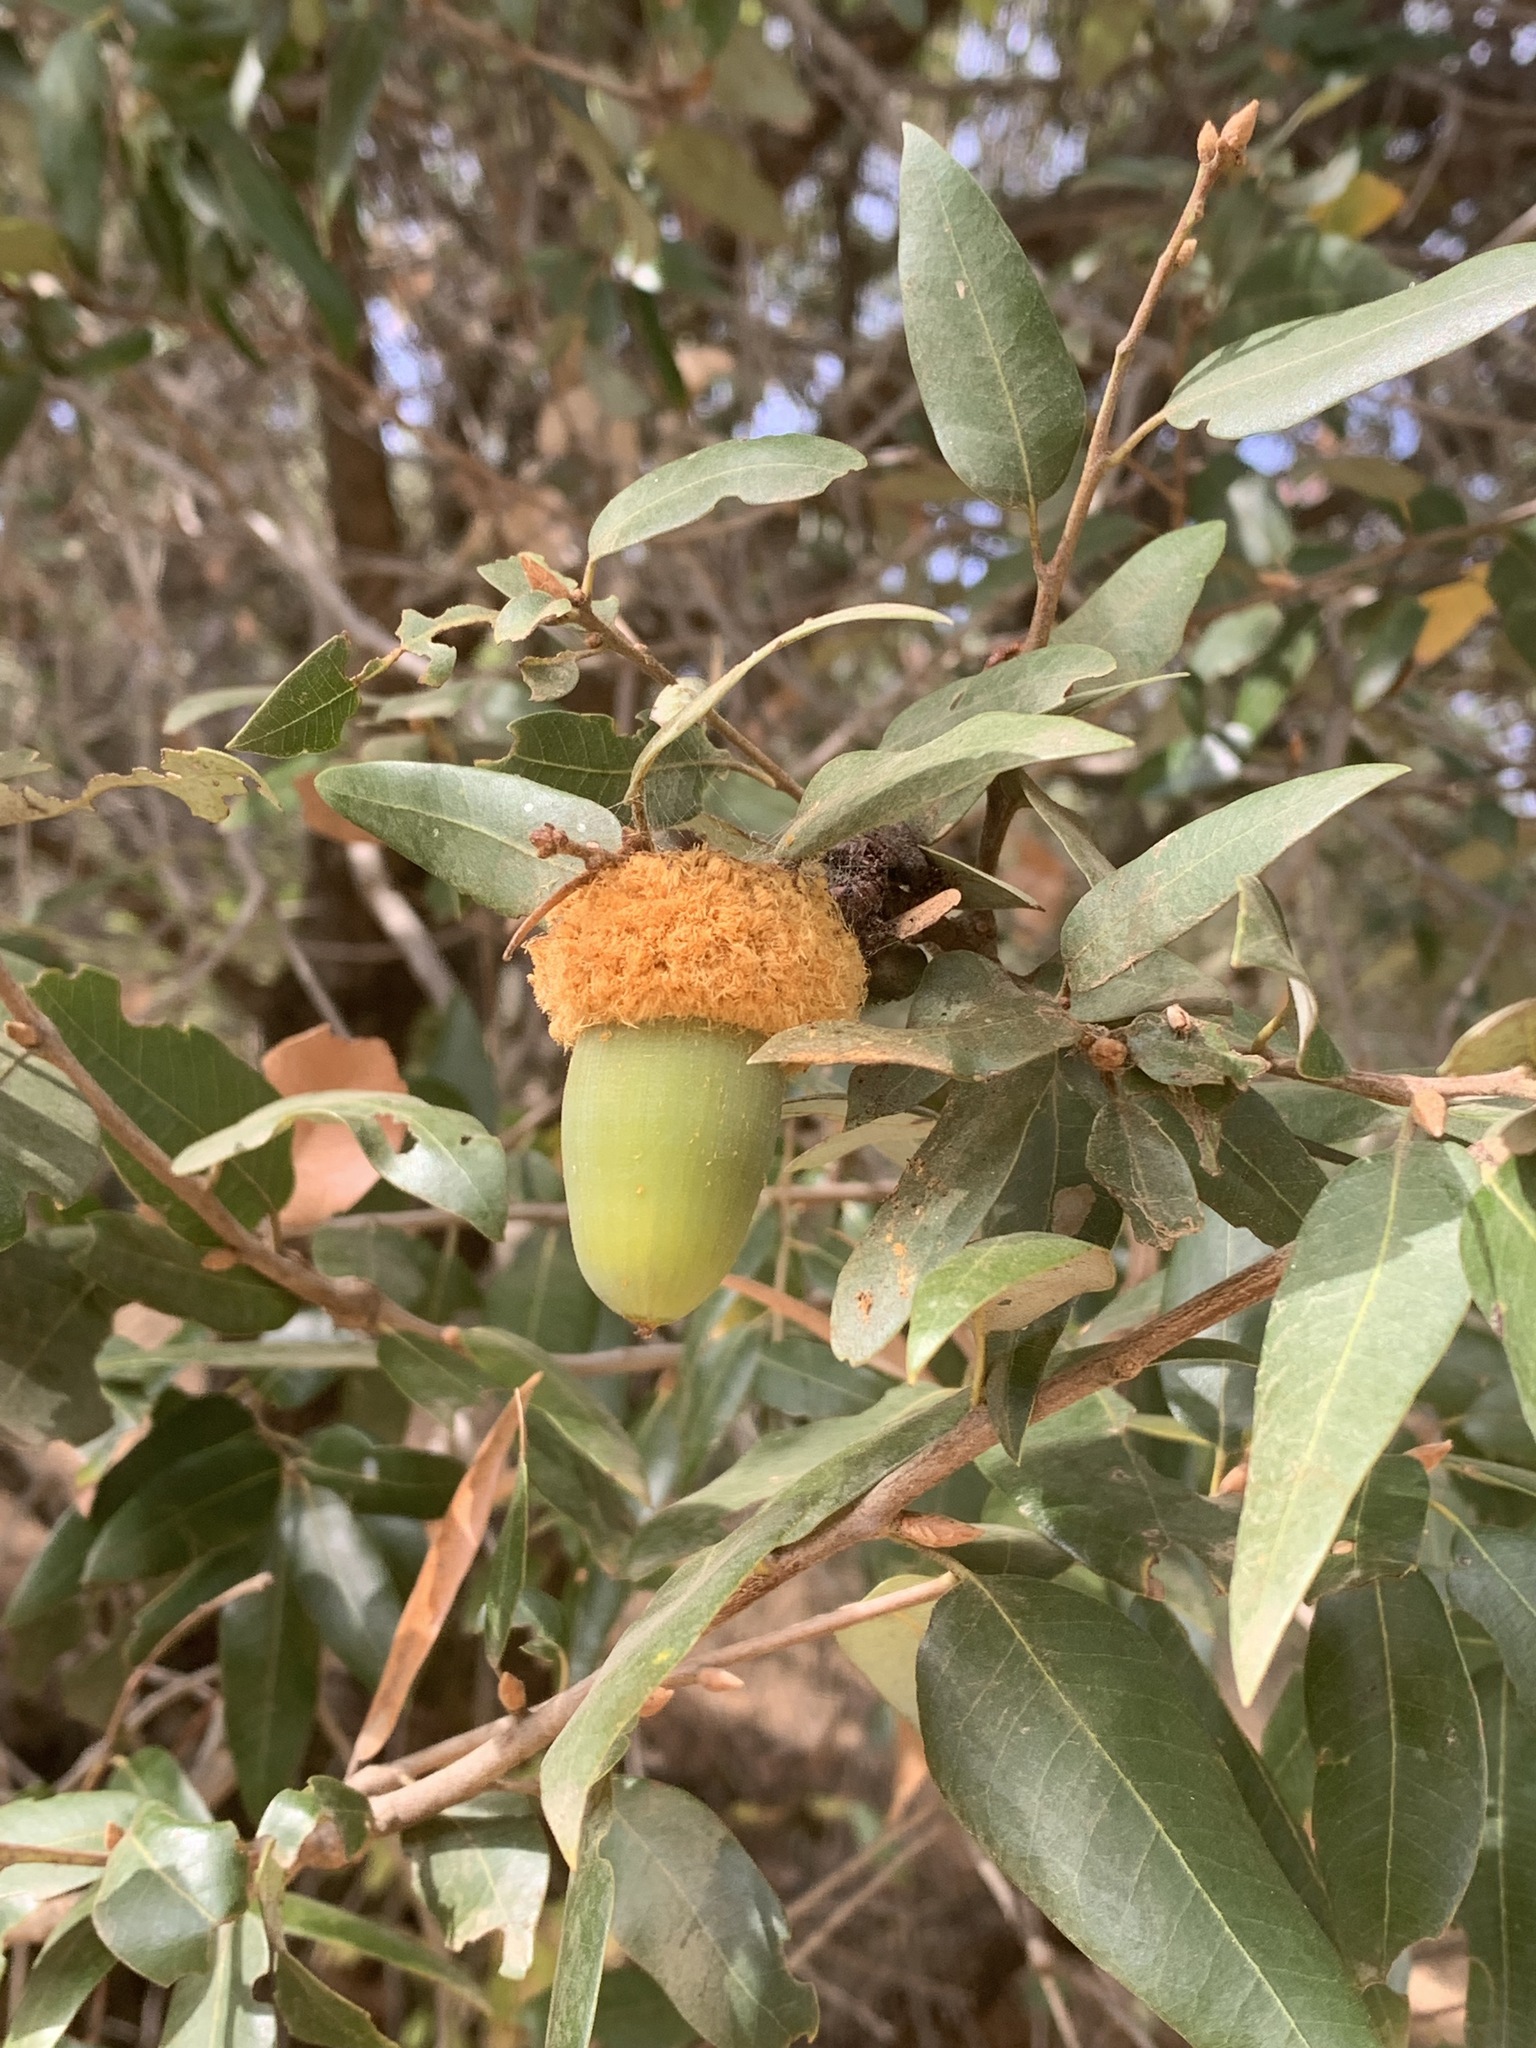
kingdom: Plantae
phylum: Tracheophyta
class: Magnoliopsida
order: Fagales
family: Fagaceae
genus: Quercus
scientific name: Quercus chrysolepis
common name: Canyon live oak
